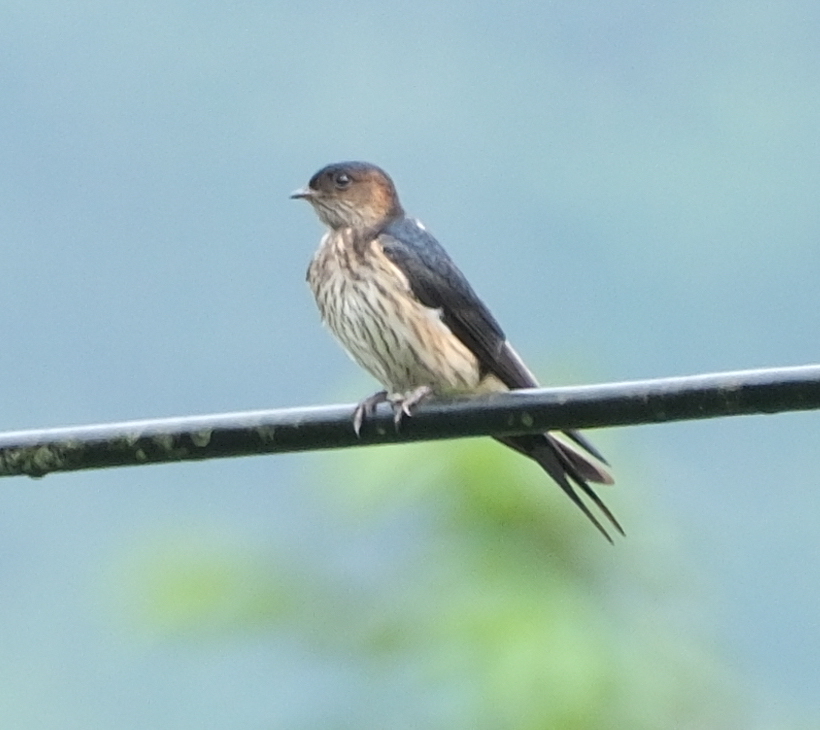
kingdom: Animalia
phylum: Chordata
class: Aves
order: Passeriformes
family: Hirundinidae
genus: Cecropis
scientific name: Cecropis striolata
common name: Striated swallow
